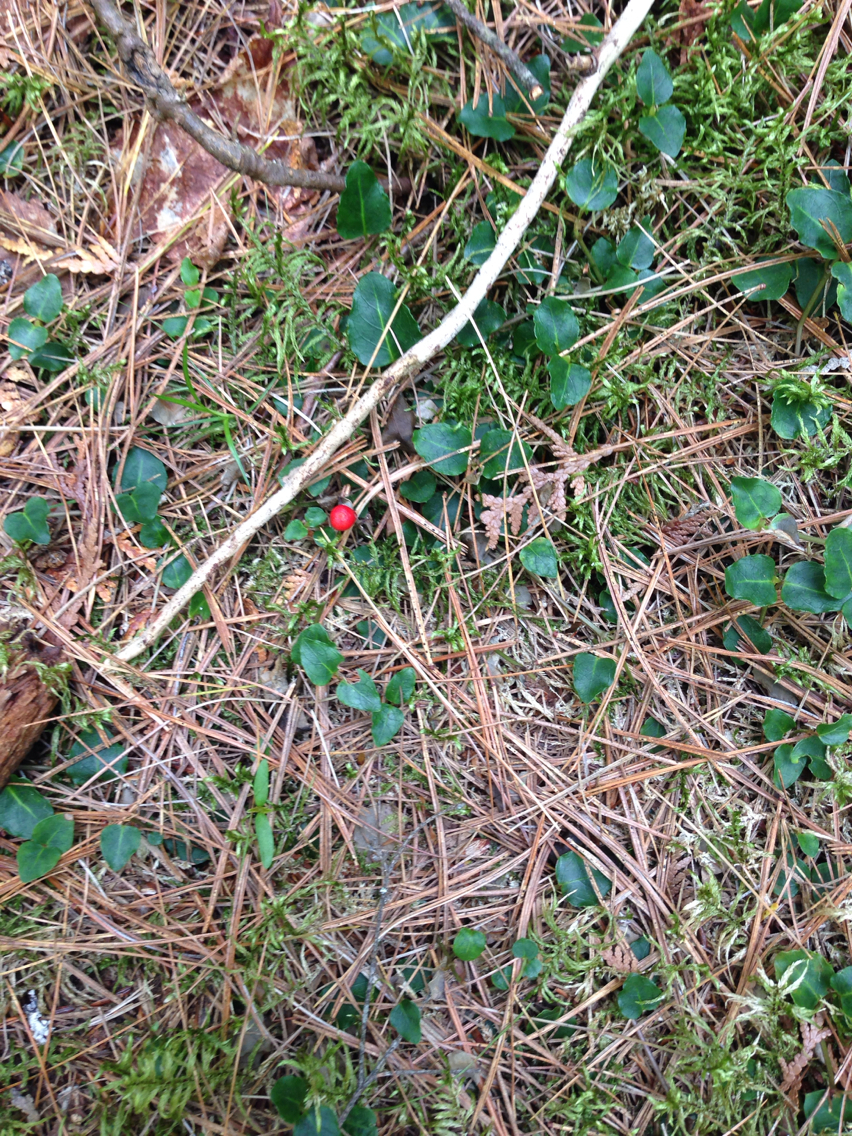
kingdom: Plantae
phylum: Tracheophyta
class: Magnoliopsida
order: Gentianales
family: Rubiaceae
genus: Mitchella
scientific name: Mitchella repens
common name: Partridge-berry
